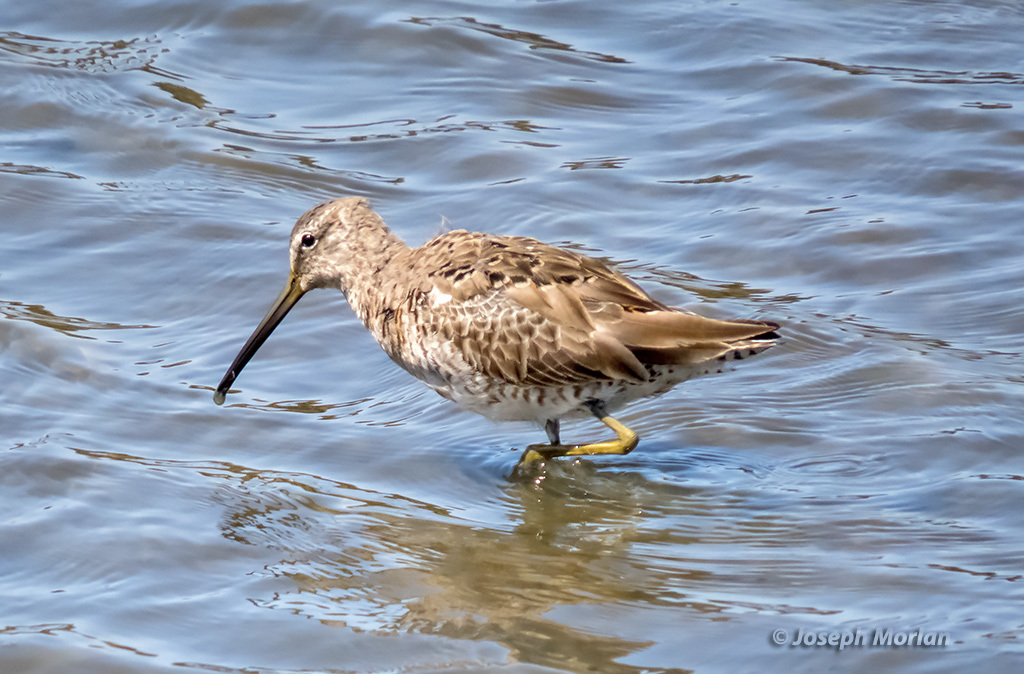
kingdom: Animalia
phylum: Chordata
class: Aves
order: Charadriiformes
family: Scolopacidae
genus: Limnodromus
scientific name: Limnodromus scolopaceus
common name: Long-billed dowitcher
